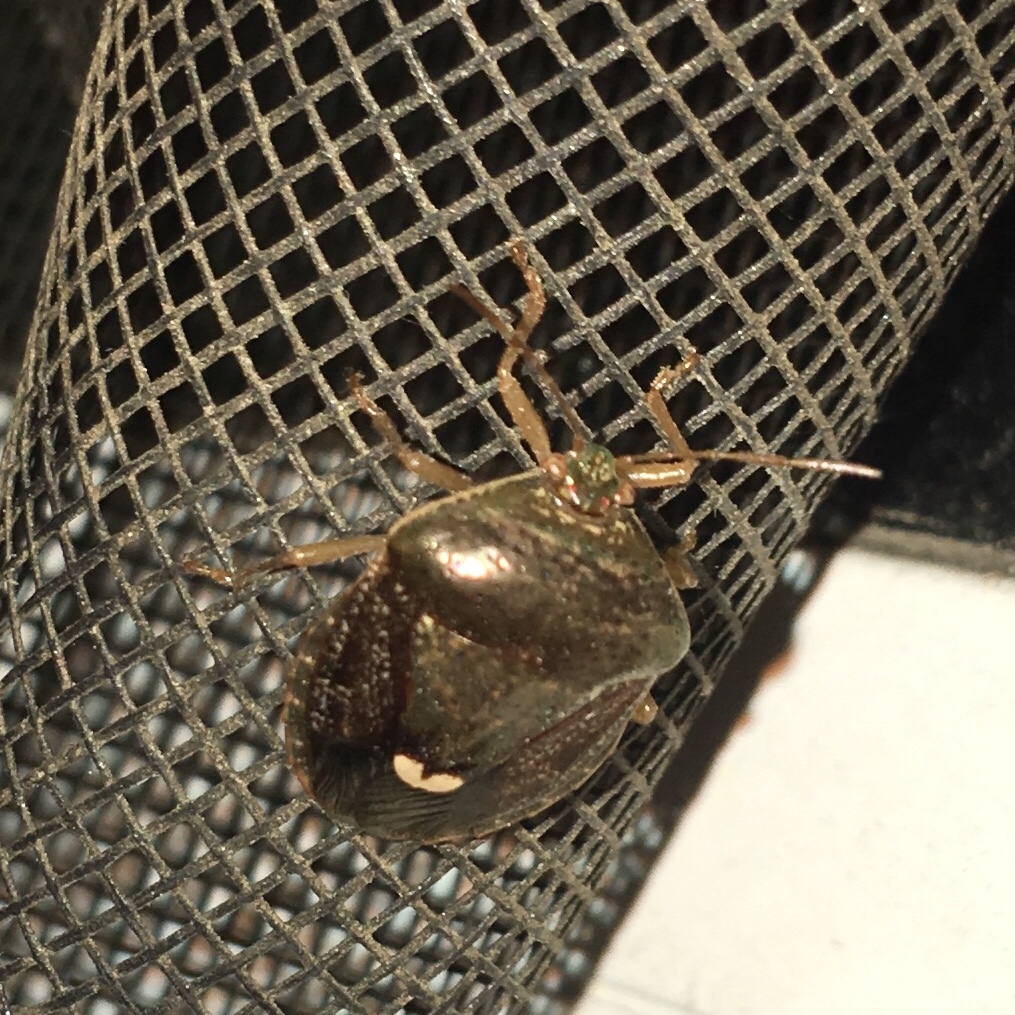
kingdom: Animalia
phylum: Arthropoda
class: Insecta
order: Hemiptera
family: Pentatomidae
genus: Edessa
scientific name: Edessa bifida
